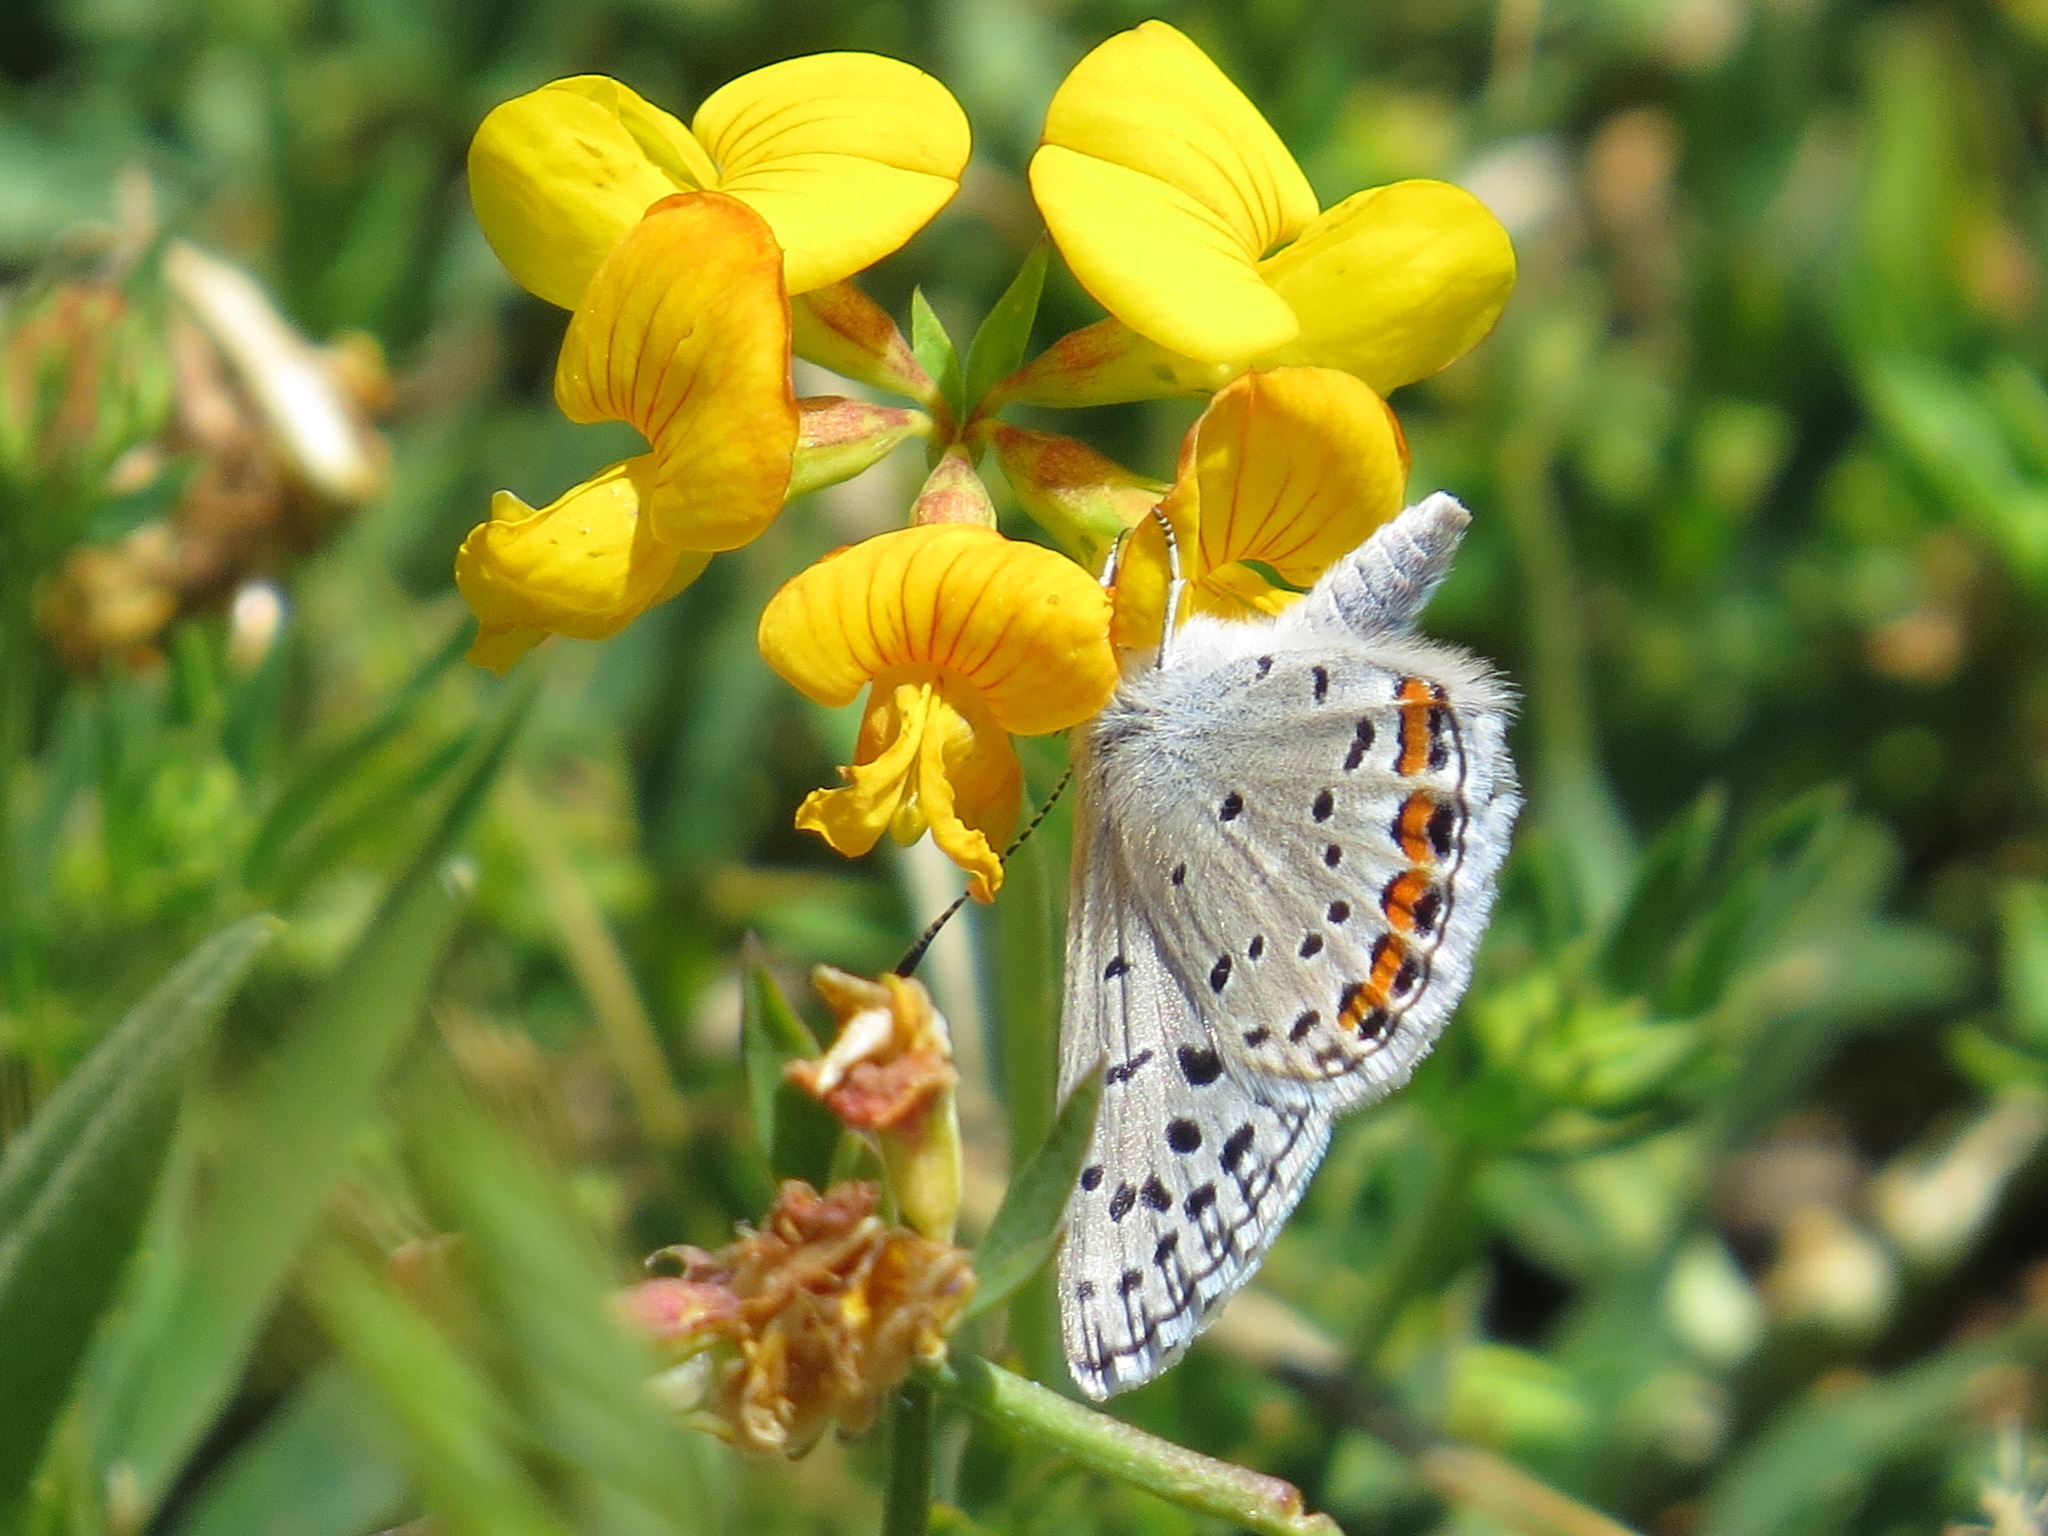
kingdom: Animalia
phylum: Arthropoda
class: Insecta
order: Lepidoptera
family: Lycaenidae
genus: Icaricia
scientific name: Icaricia acmon
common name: Acmon blue
